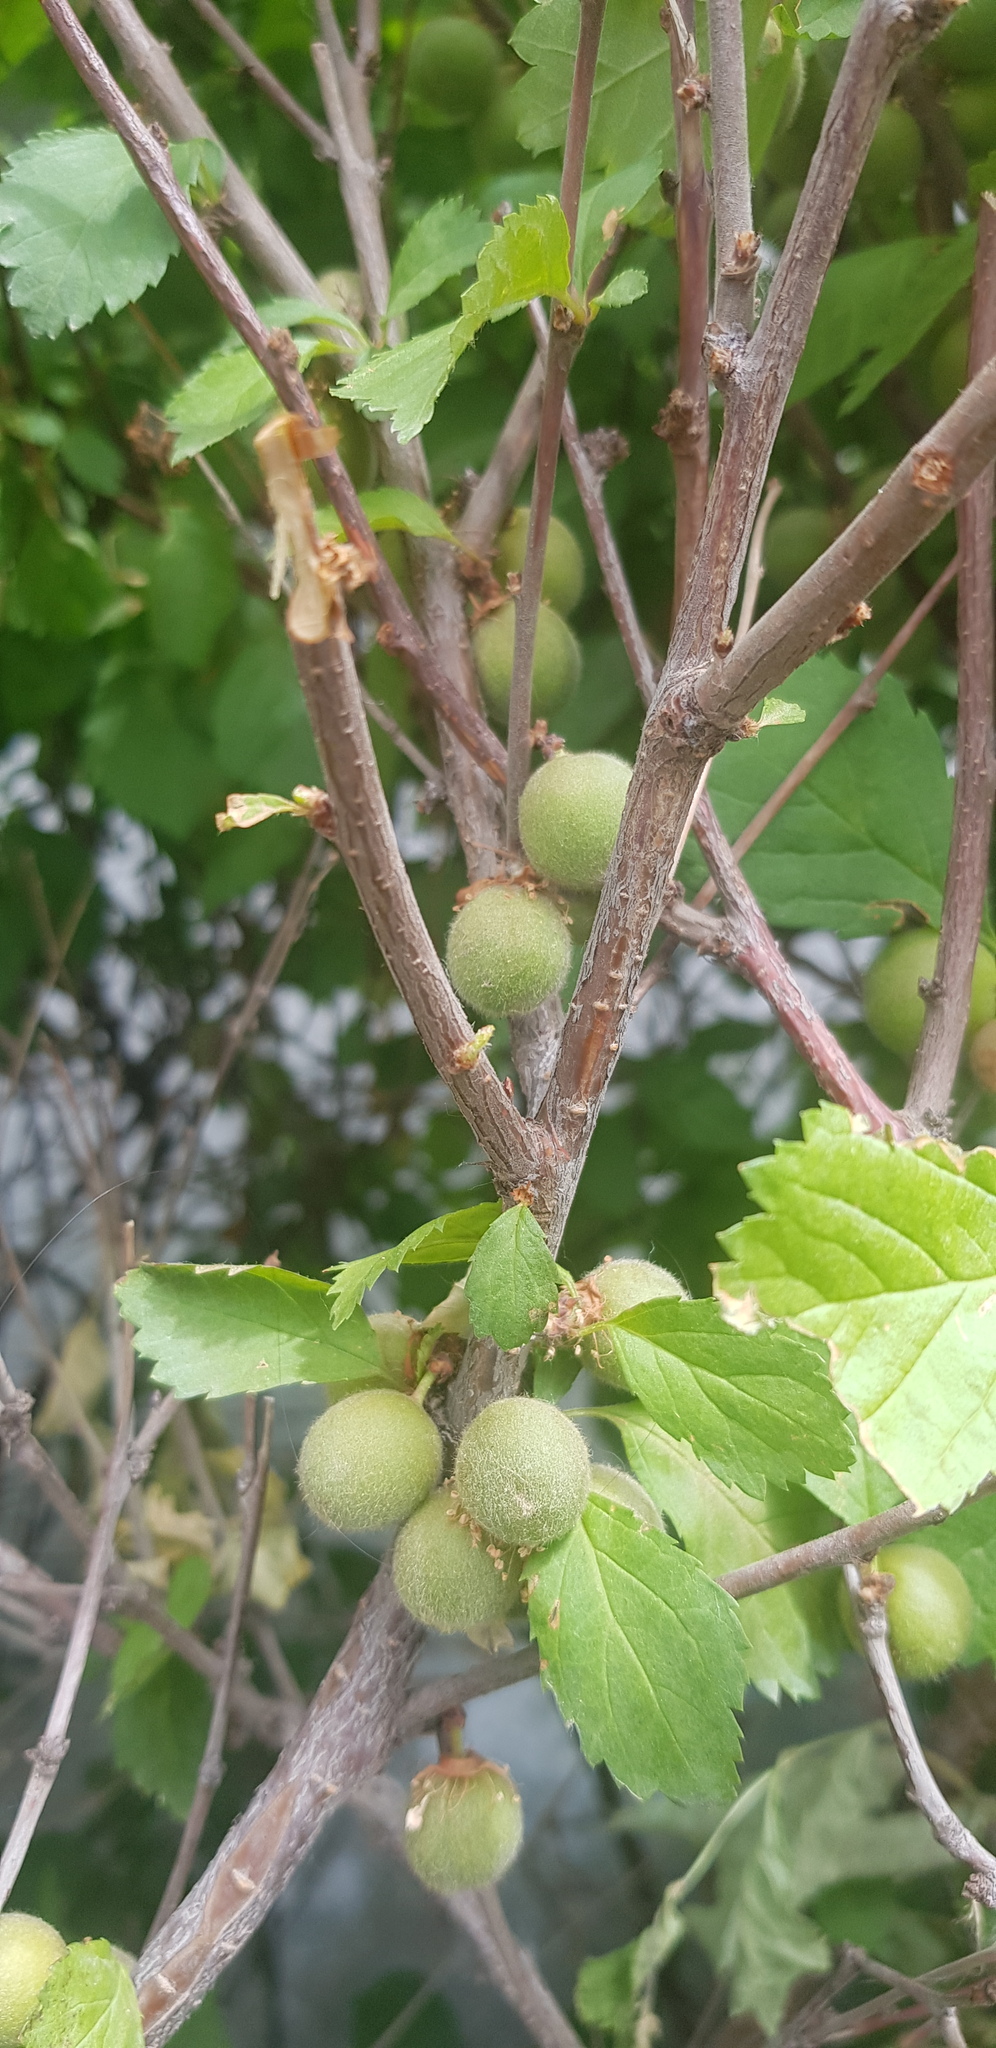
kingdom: Plantae
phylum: Tracheophyta
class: Magnoliopsida
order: Rosales
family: Rosaceae
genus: Prunus
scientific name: Prunus triloba
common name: Flowering plum
